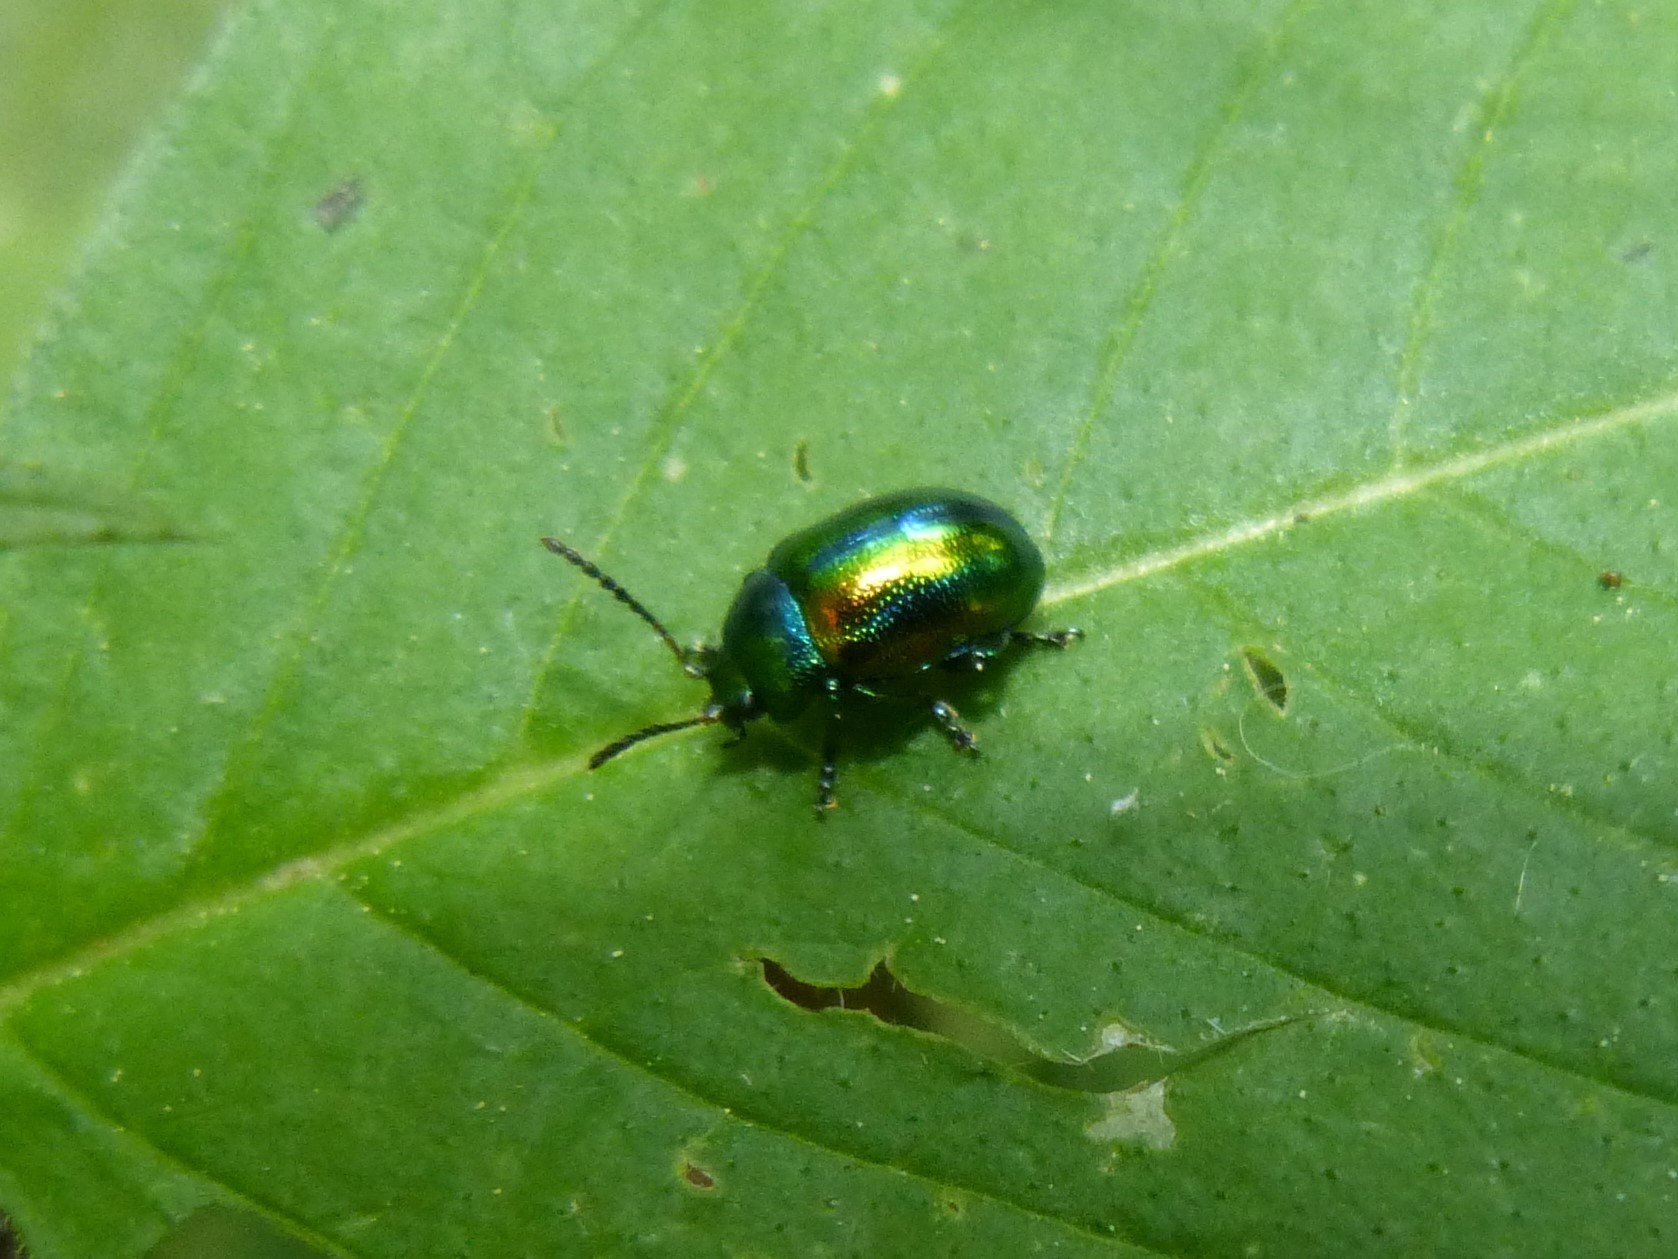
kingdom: Animalia
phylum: Arthropoda
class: Insecta
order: Coleoptera
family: Chrysomelidae
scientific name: Chrysomelidae
